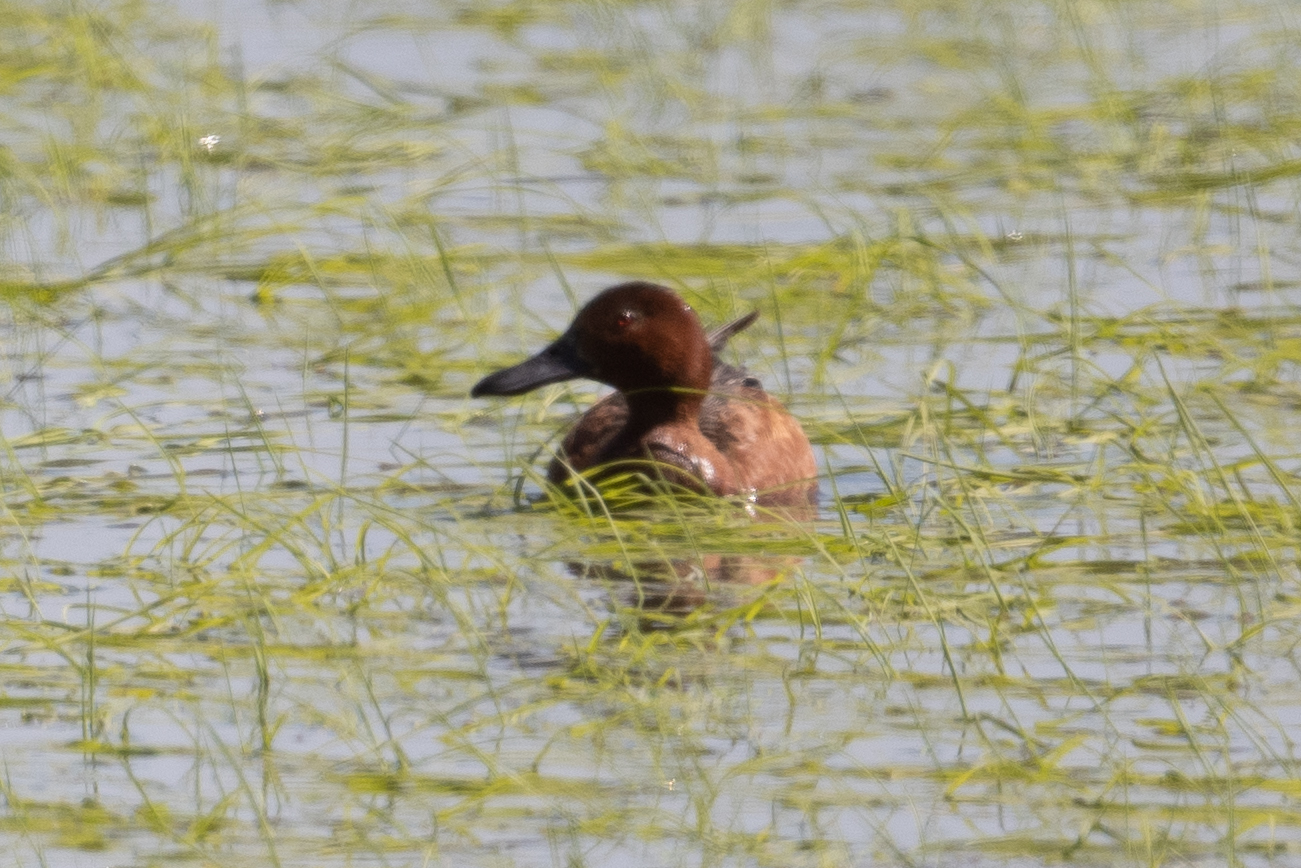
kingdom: Animalia
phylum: Chordata
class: Aves
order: Anseriformes
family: Anatidae
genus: Spatula
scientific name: Spatula cyanoptera
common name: Cinnamon teal
